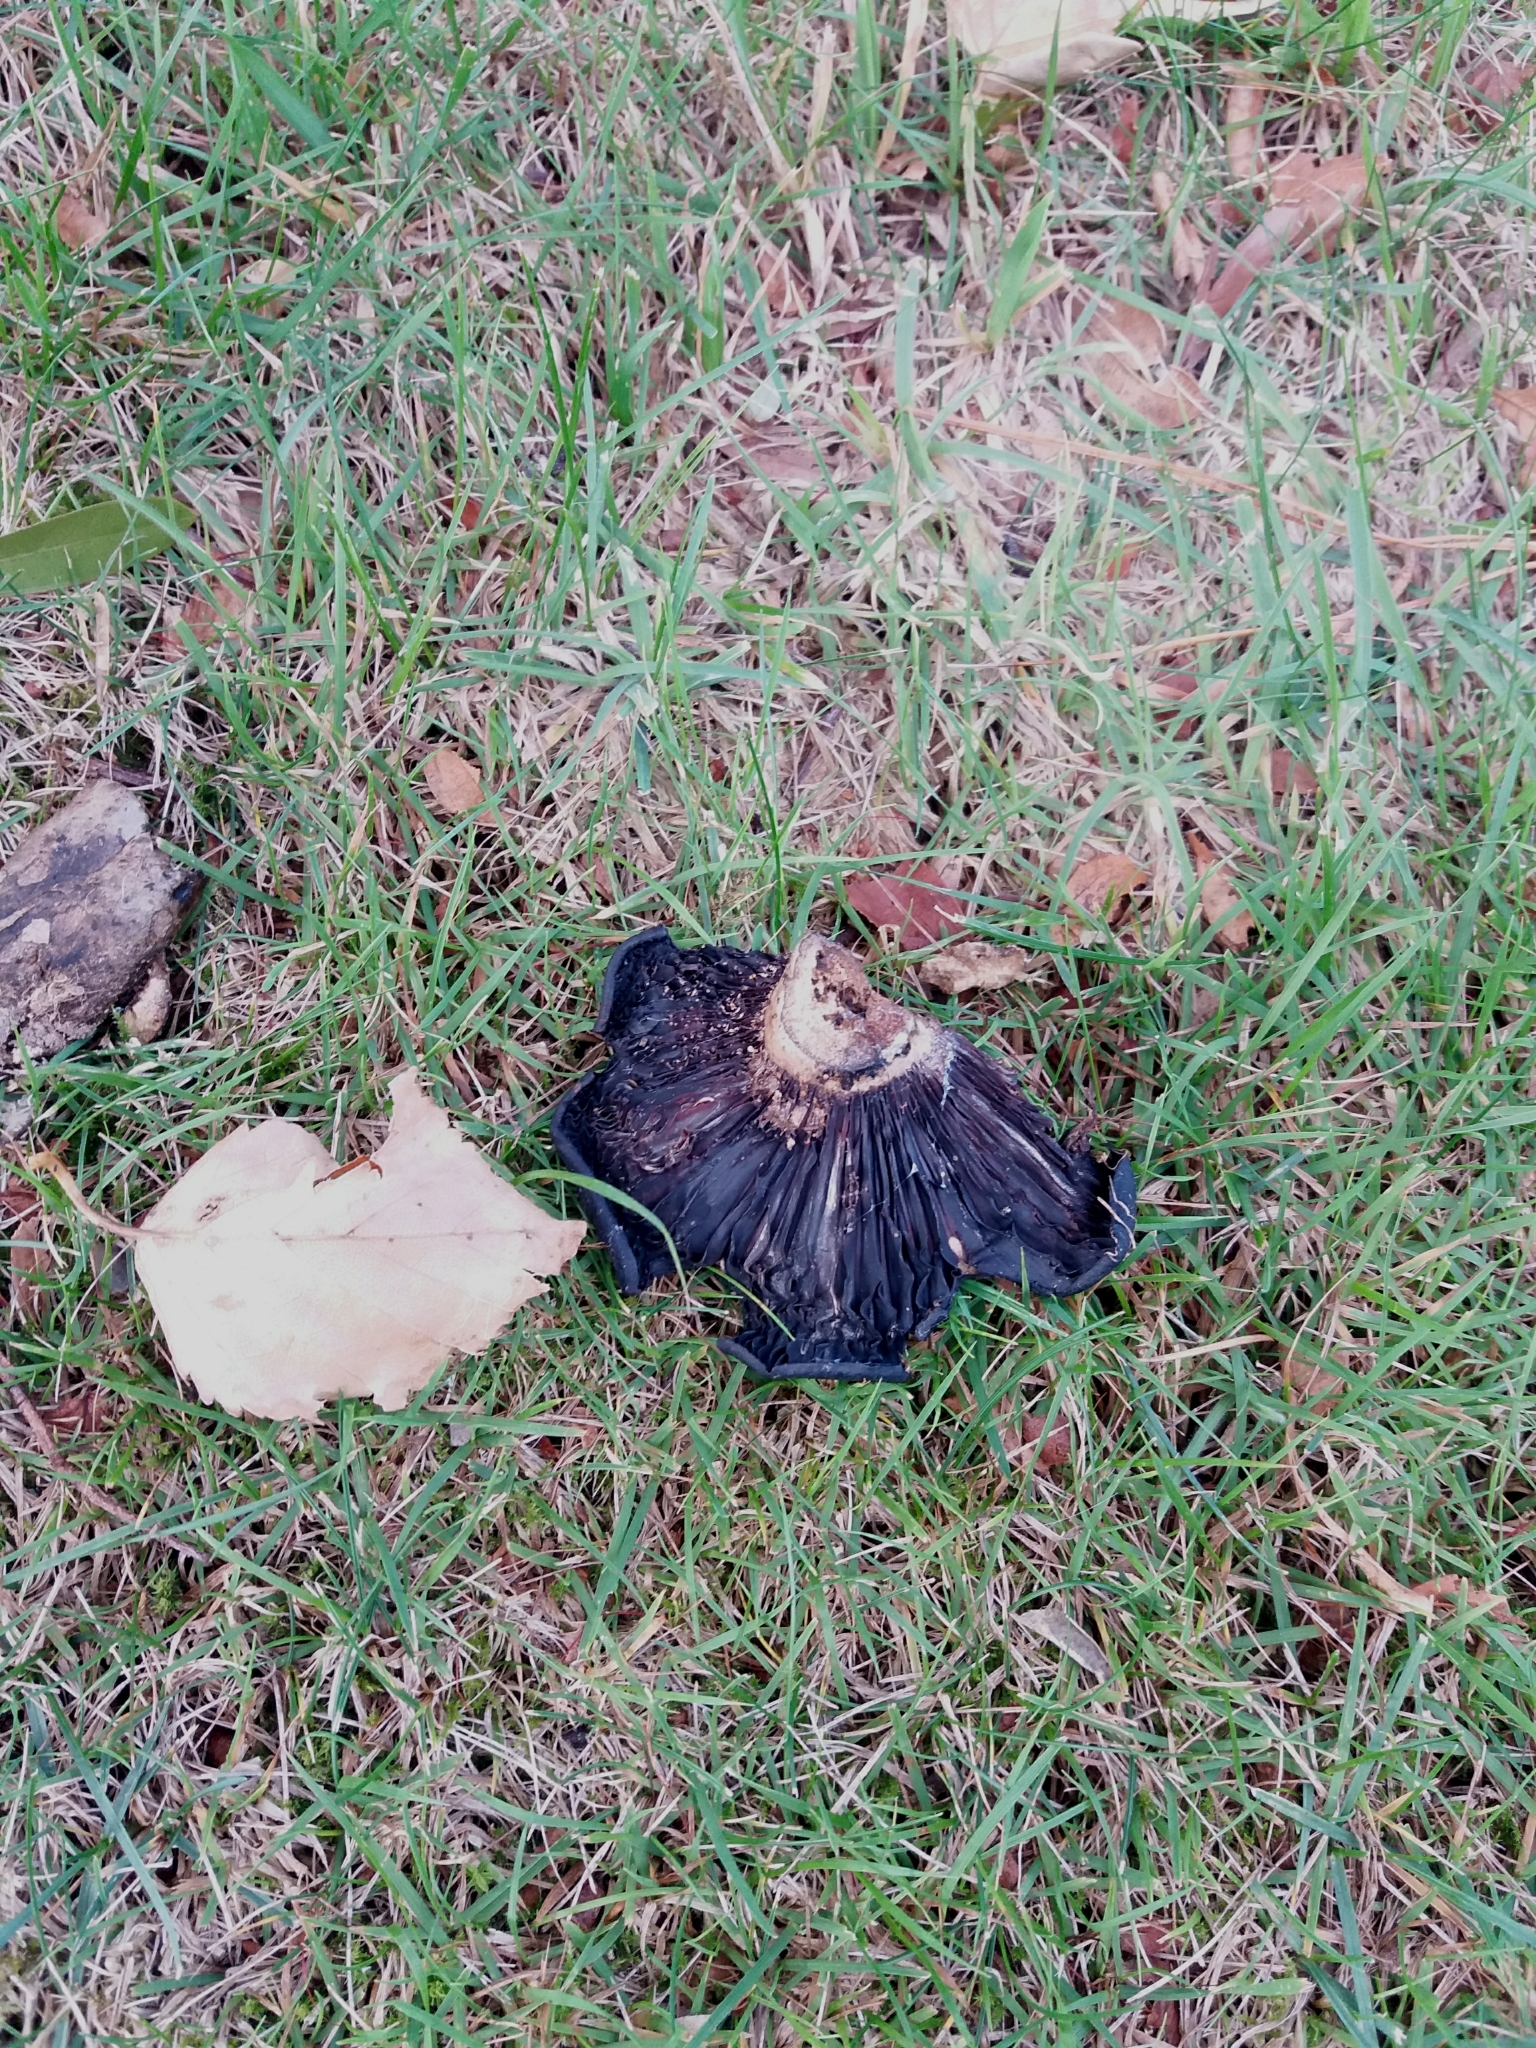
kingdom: Fungi
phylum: Basidiomycota
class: Agaricomycetes
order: Russulales
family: Russulaceae
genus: Lactarius
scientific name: Lactarius turpis
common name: Ugly milk-cap
